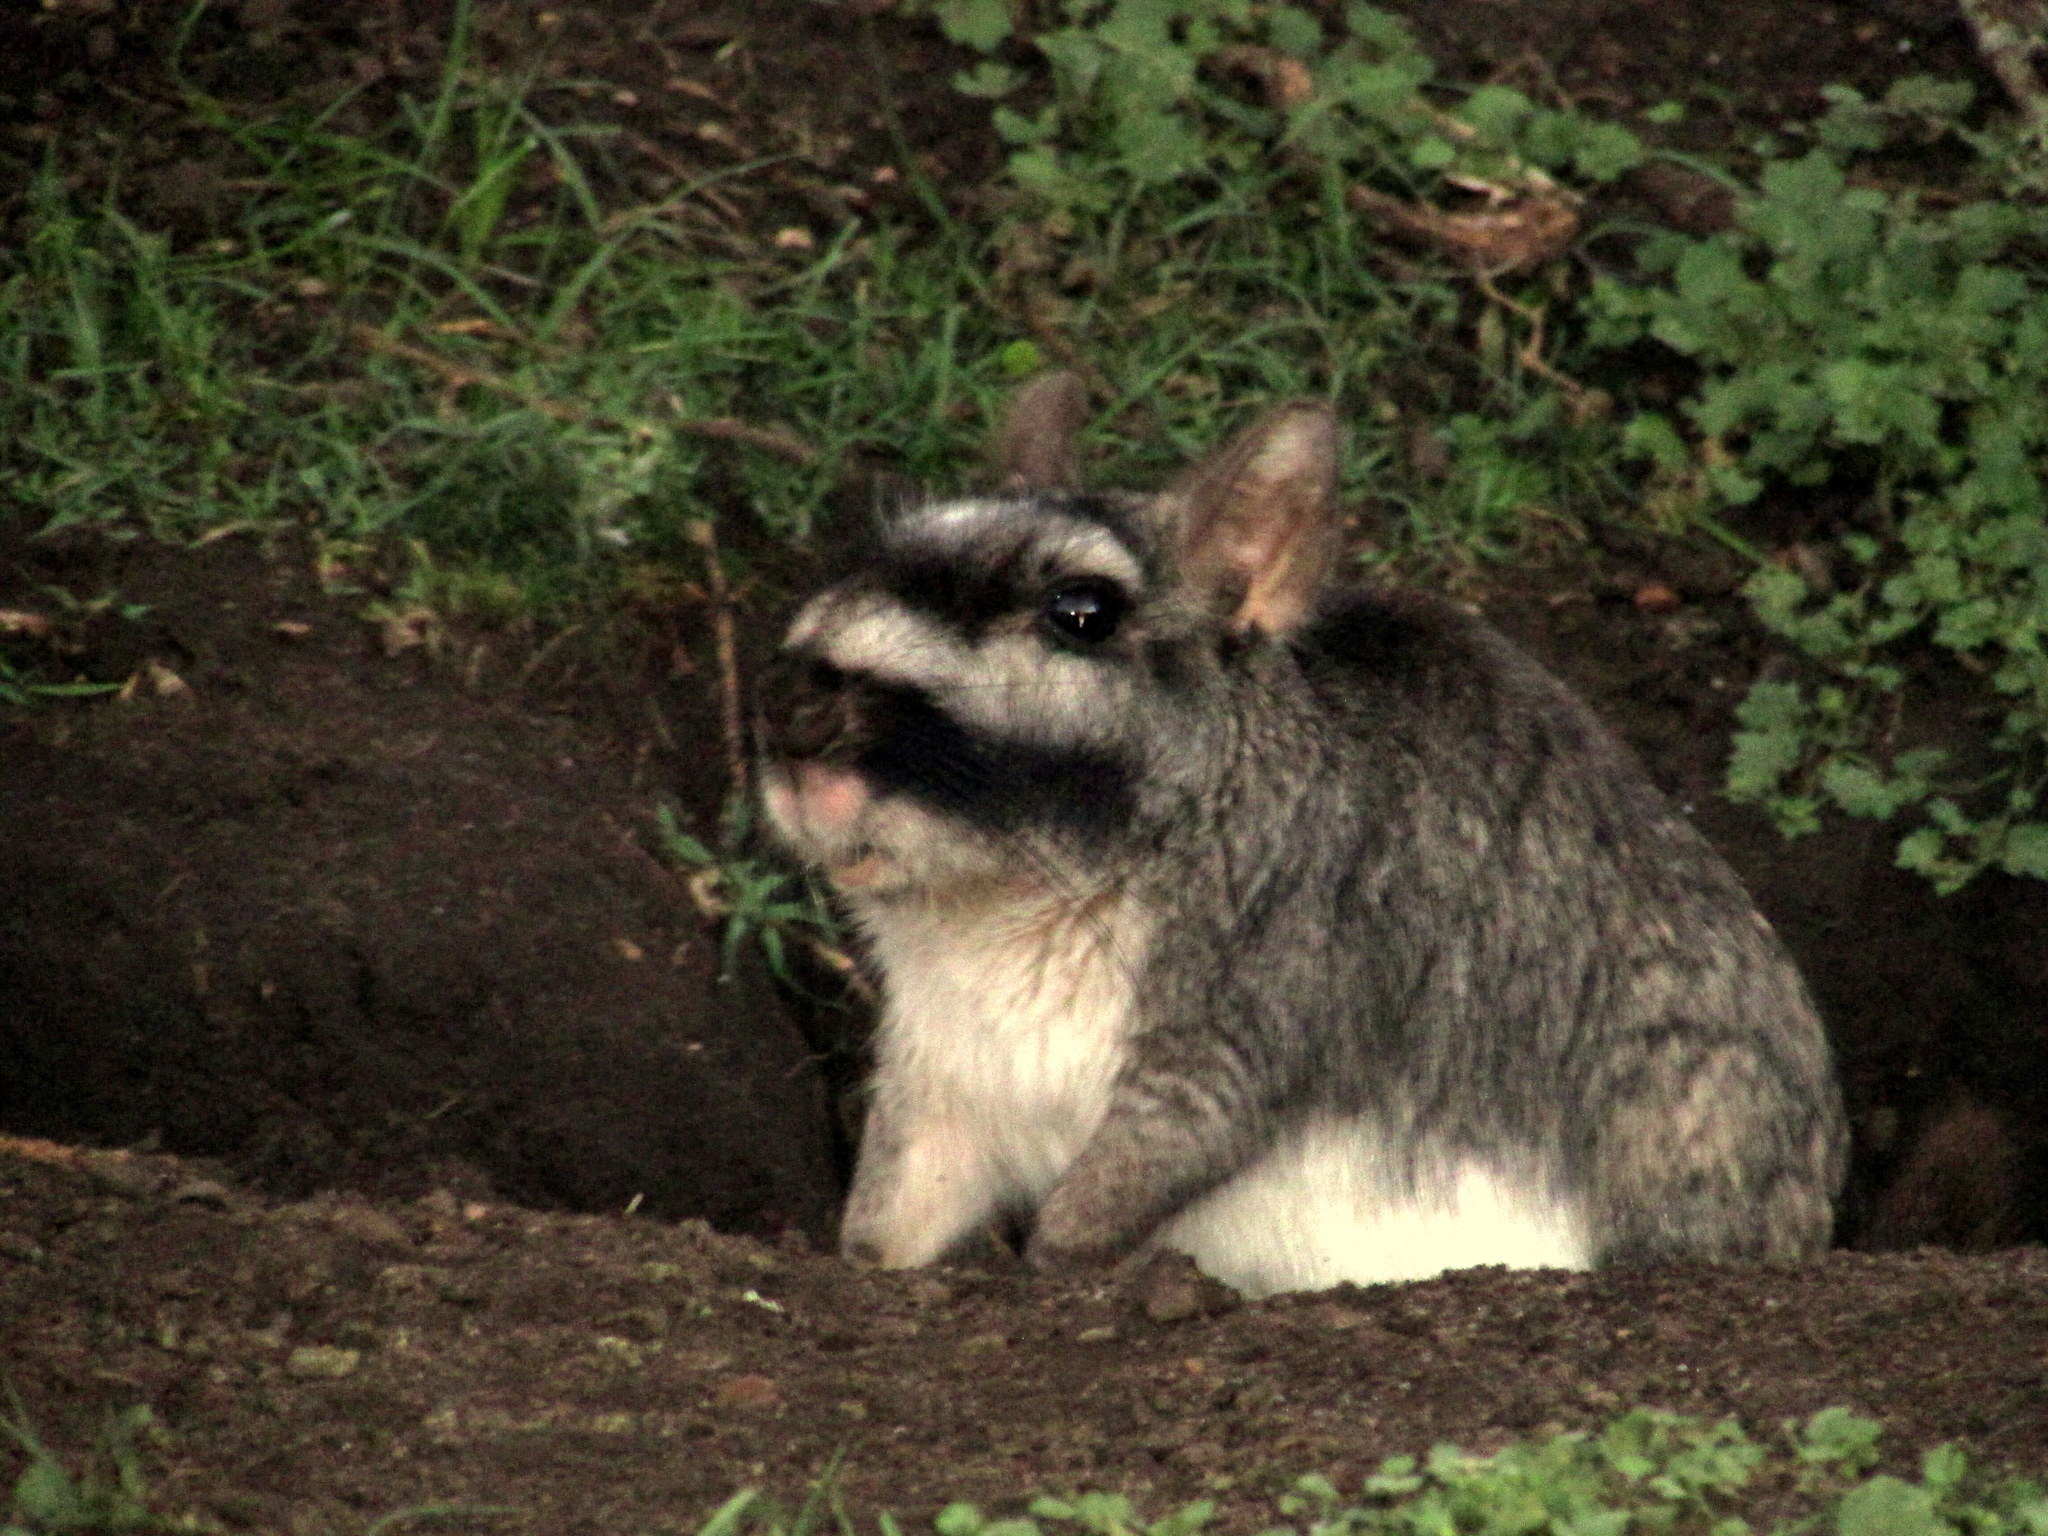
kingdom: Animalia
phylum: Chordata
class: Mammalia
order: Rodentia
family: Chinchillidae
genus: Lagostomus
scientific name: Lagostomus maximus
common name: Plains viscacha
